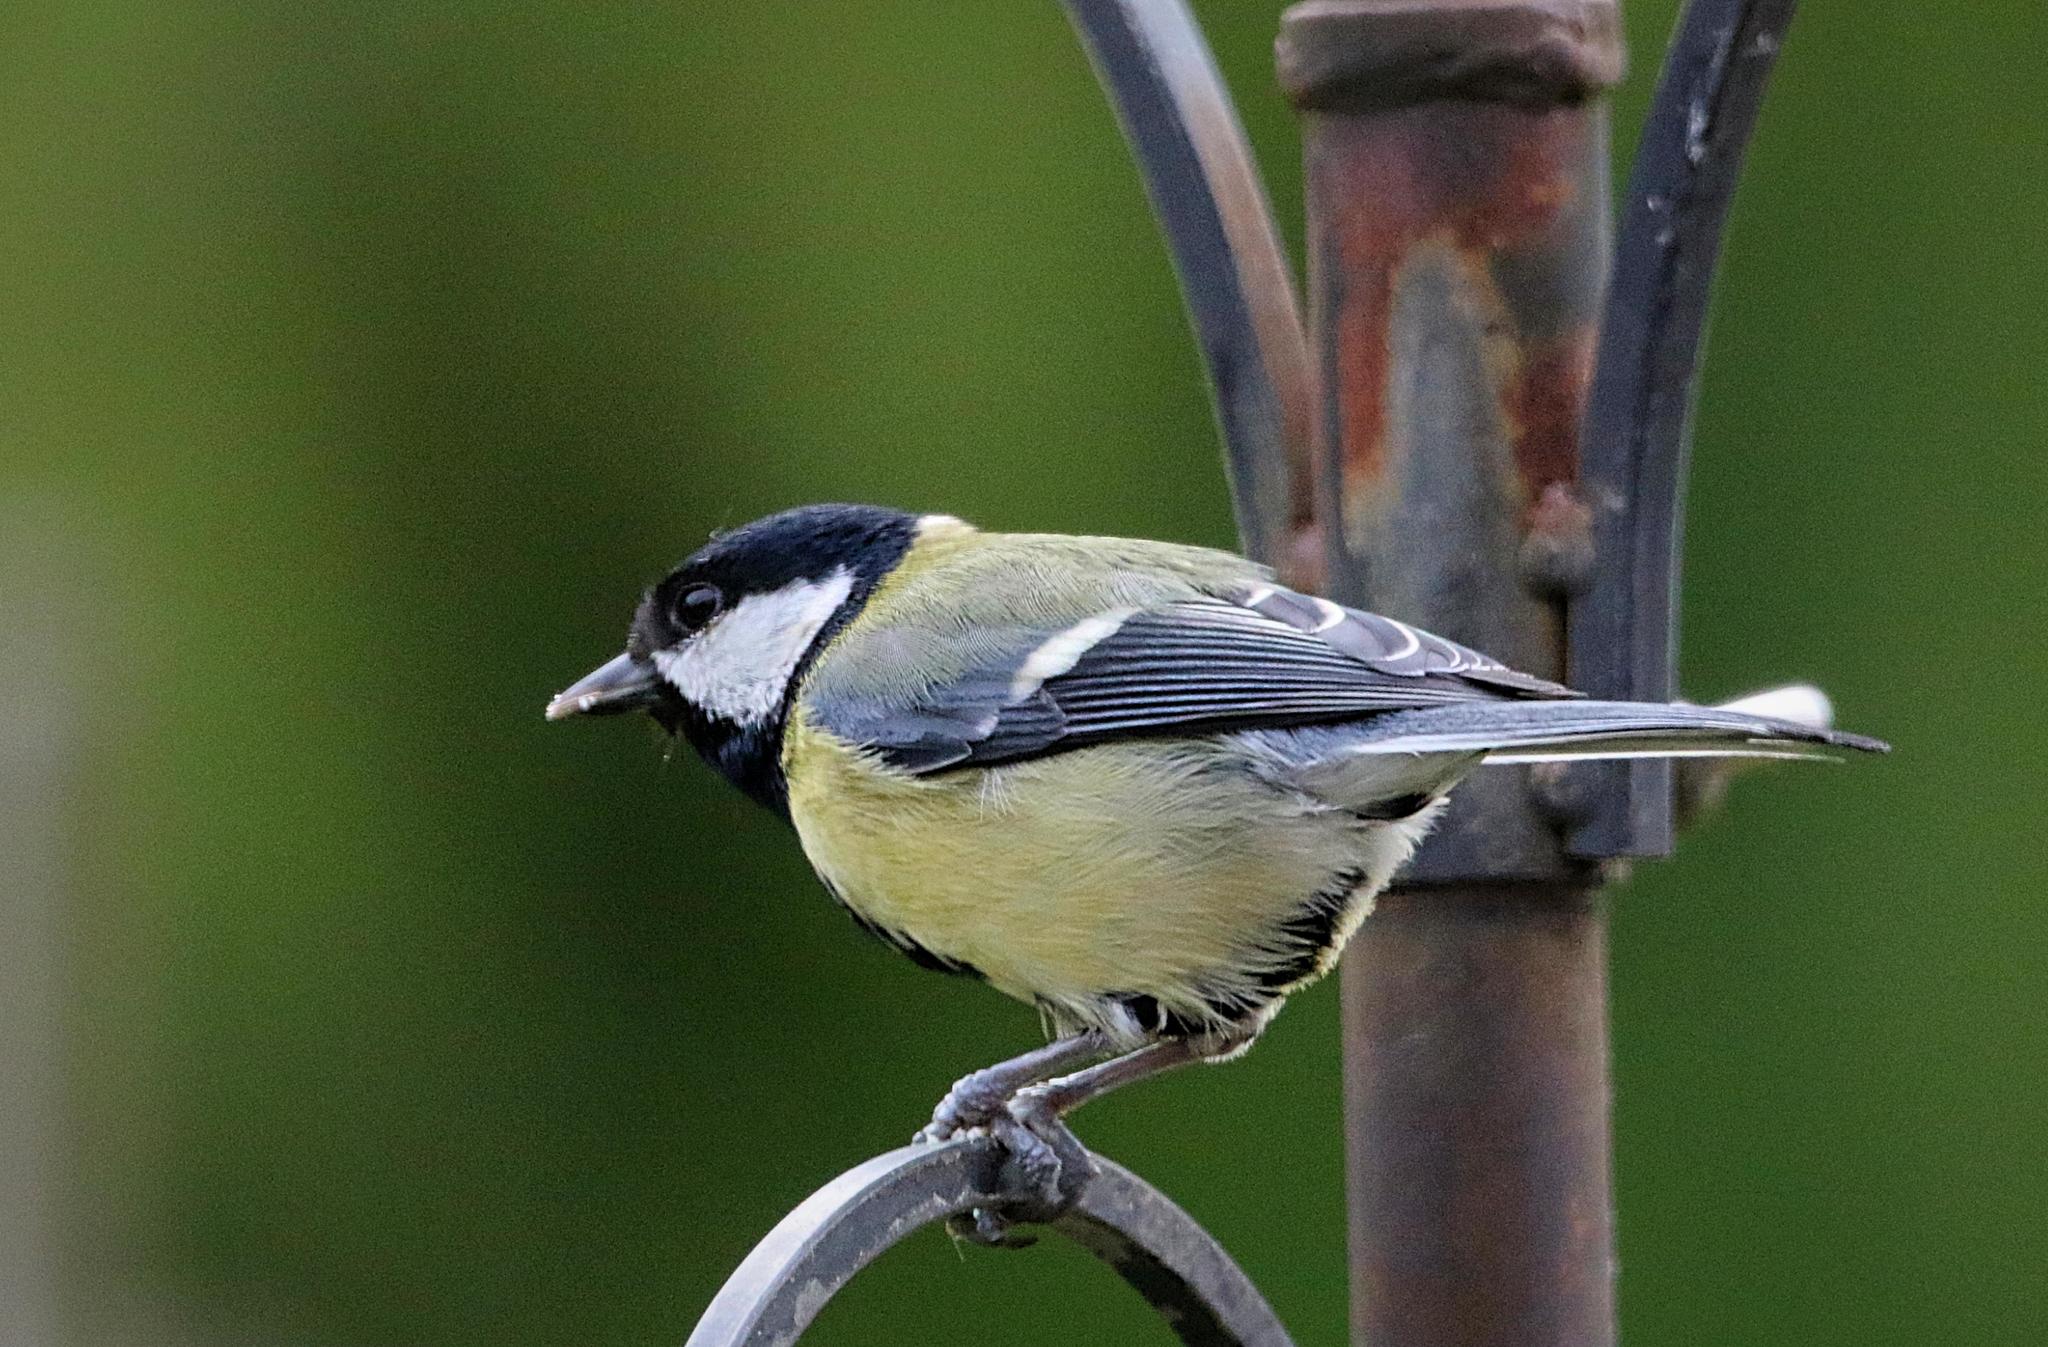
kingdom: Animalia
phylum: Chordata
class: Aves
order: Passeriformes
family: Paridae
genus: Parus
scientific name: Parus major
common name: Great tit
